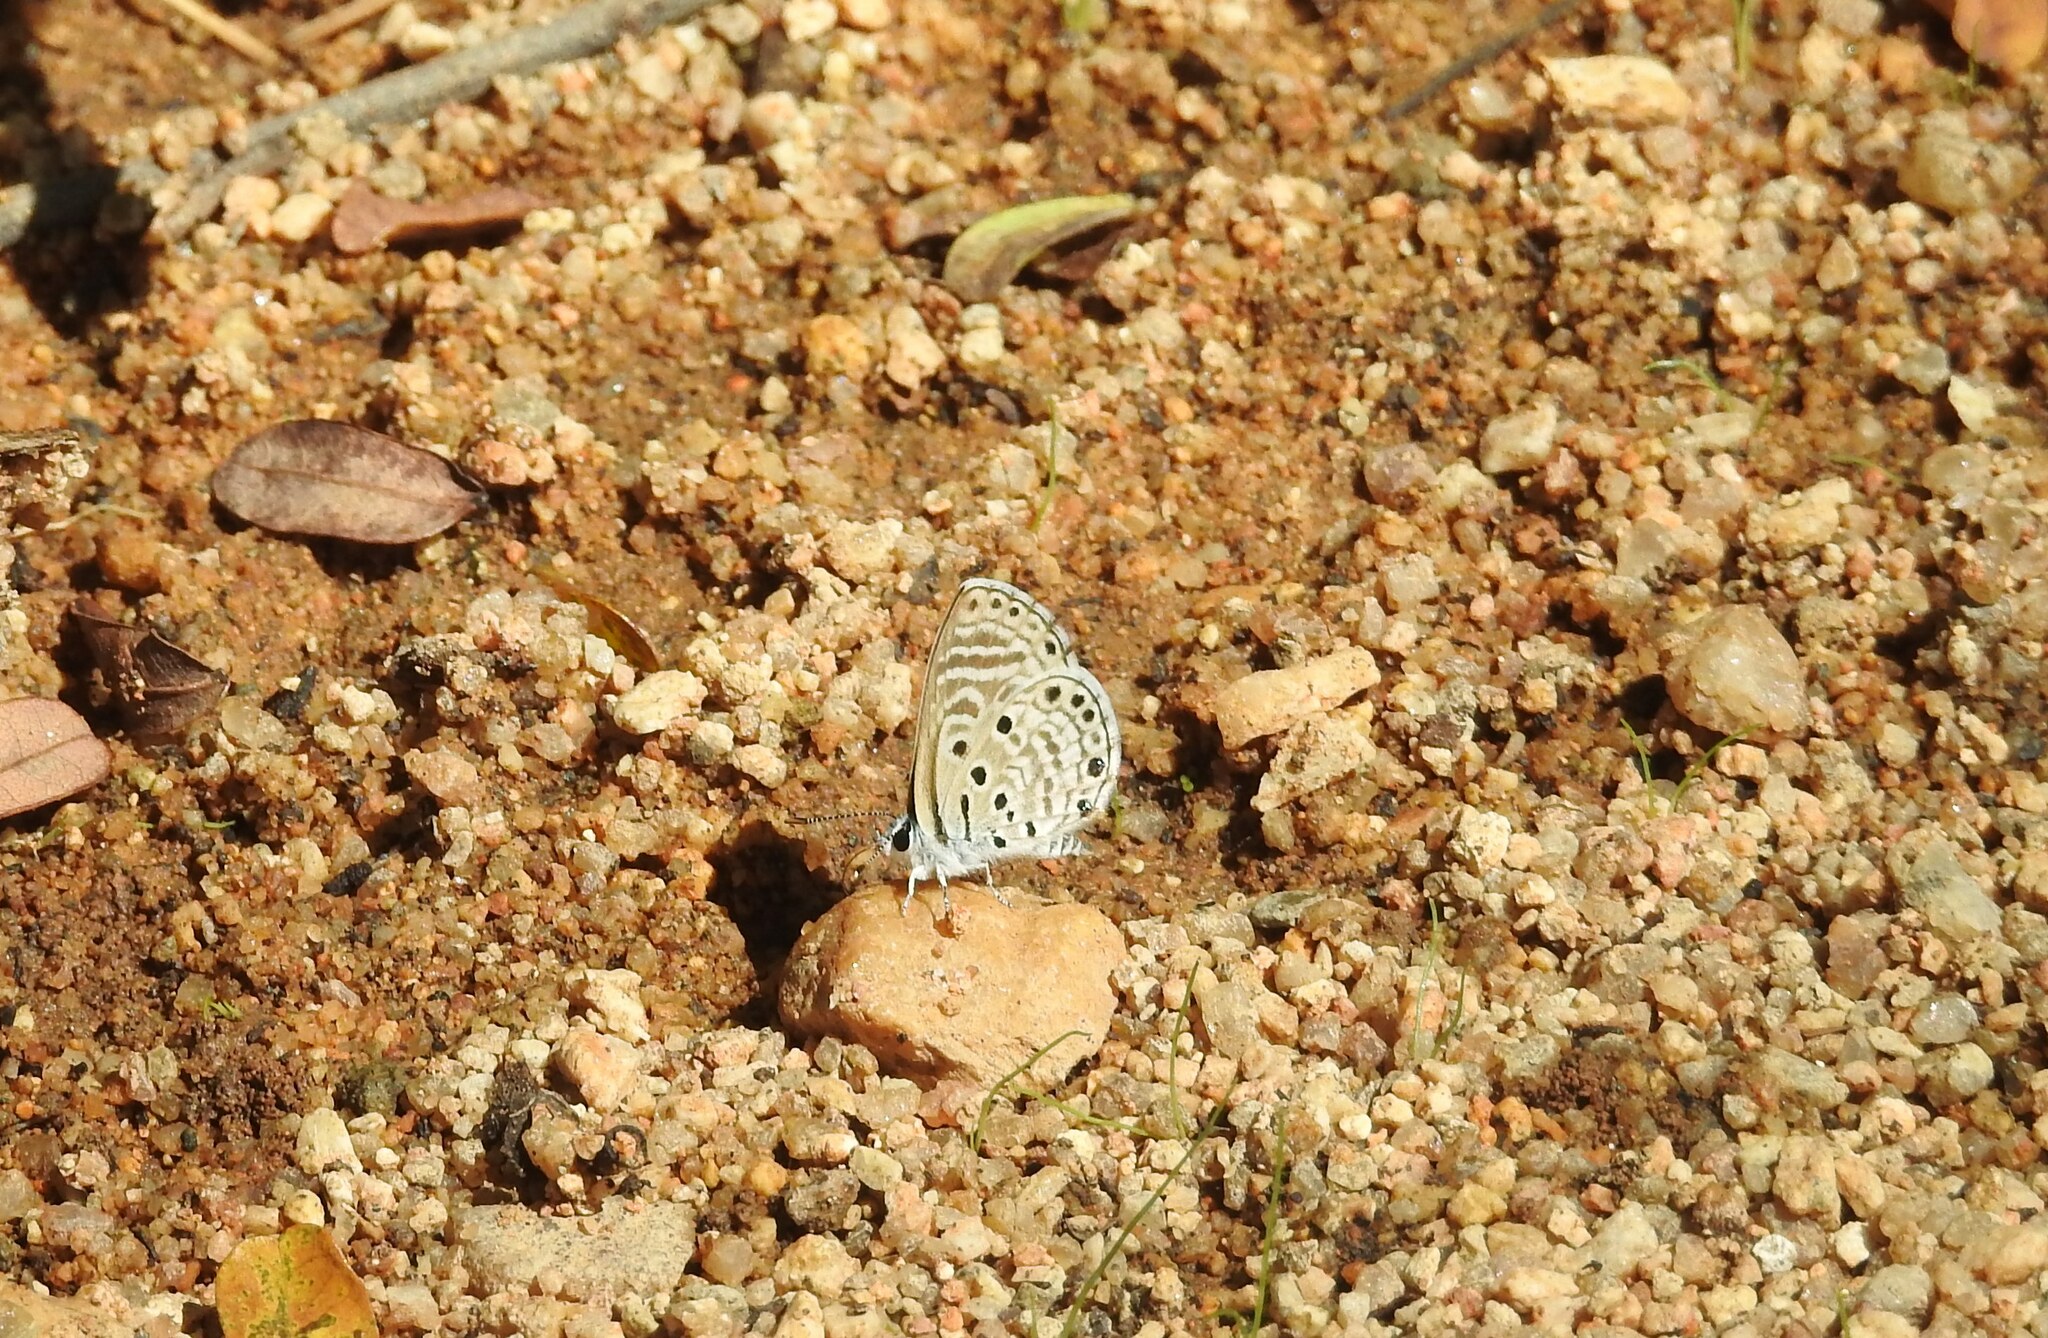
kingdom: Animalia
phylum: Arthropoda
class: Insecta
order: Lepidoptera
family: Lycaenidae
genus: Azanus
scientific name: Azanus jesous
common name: African babul blue
